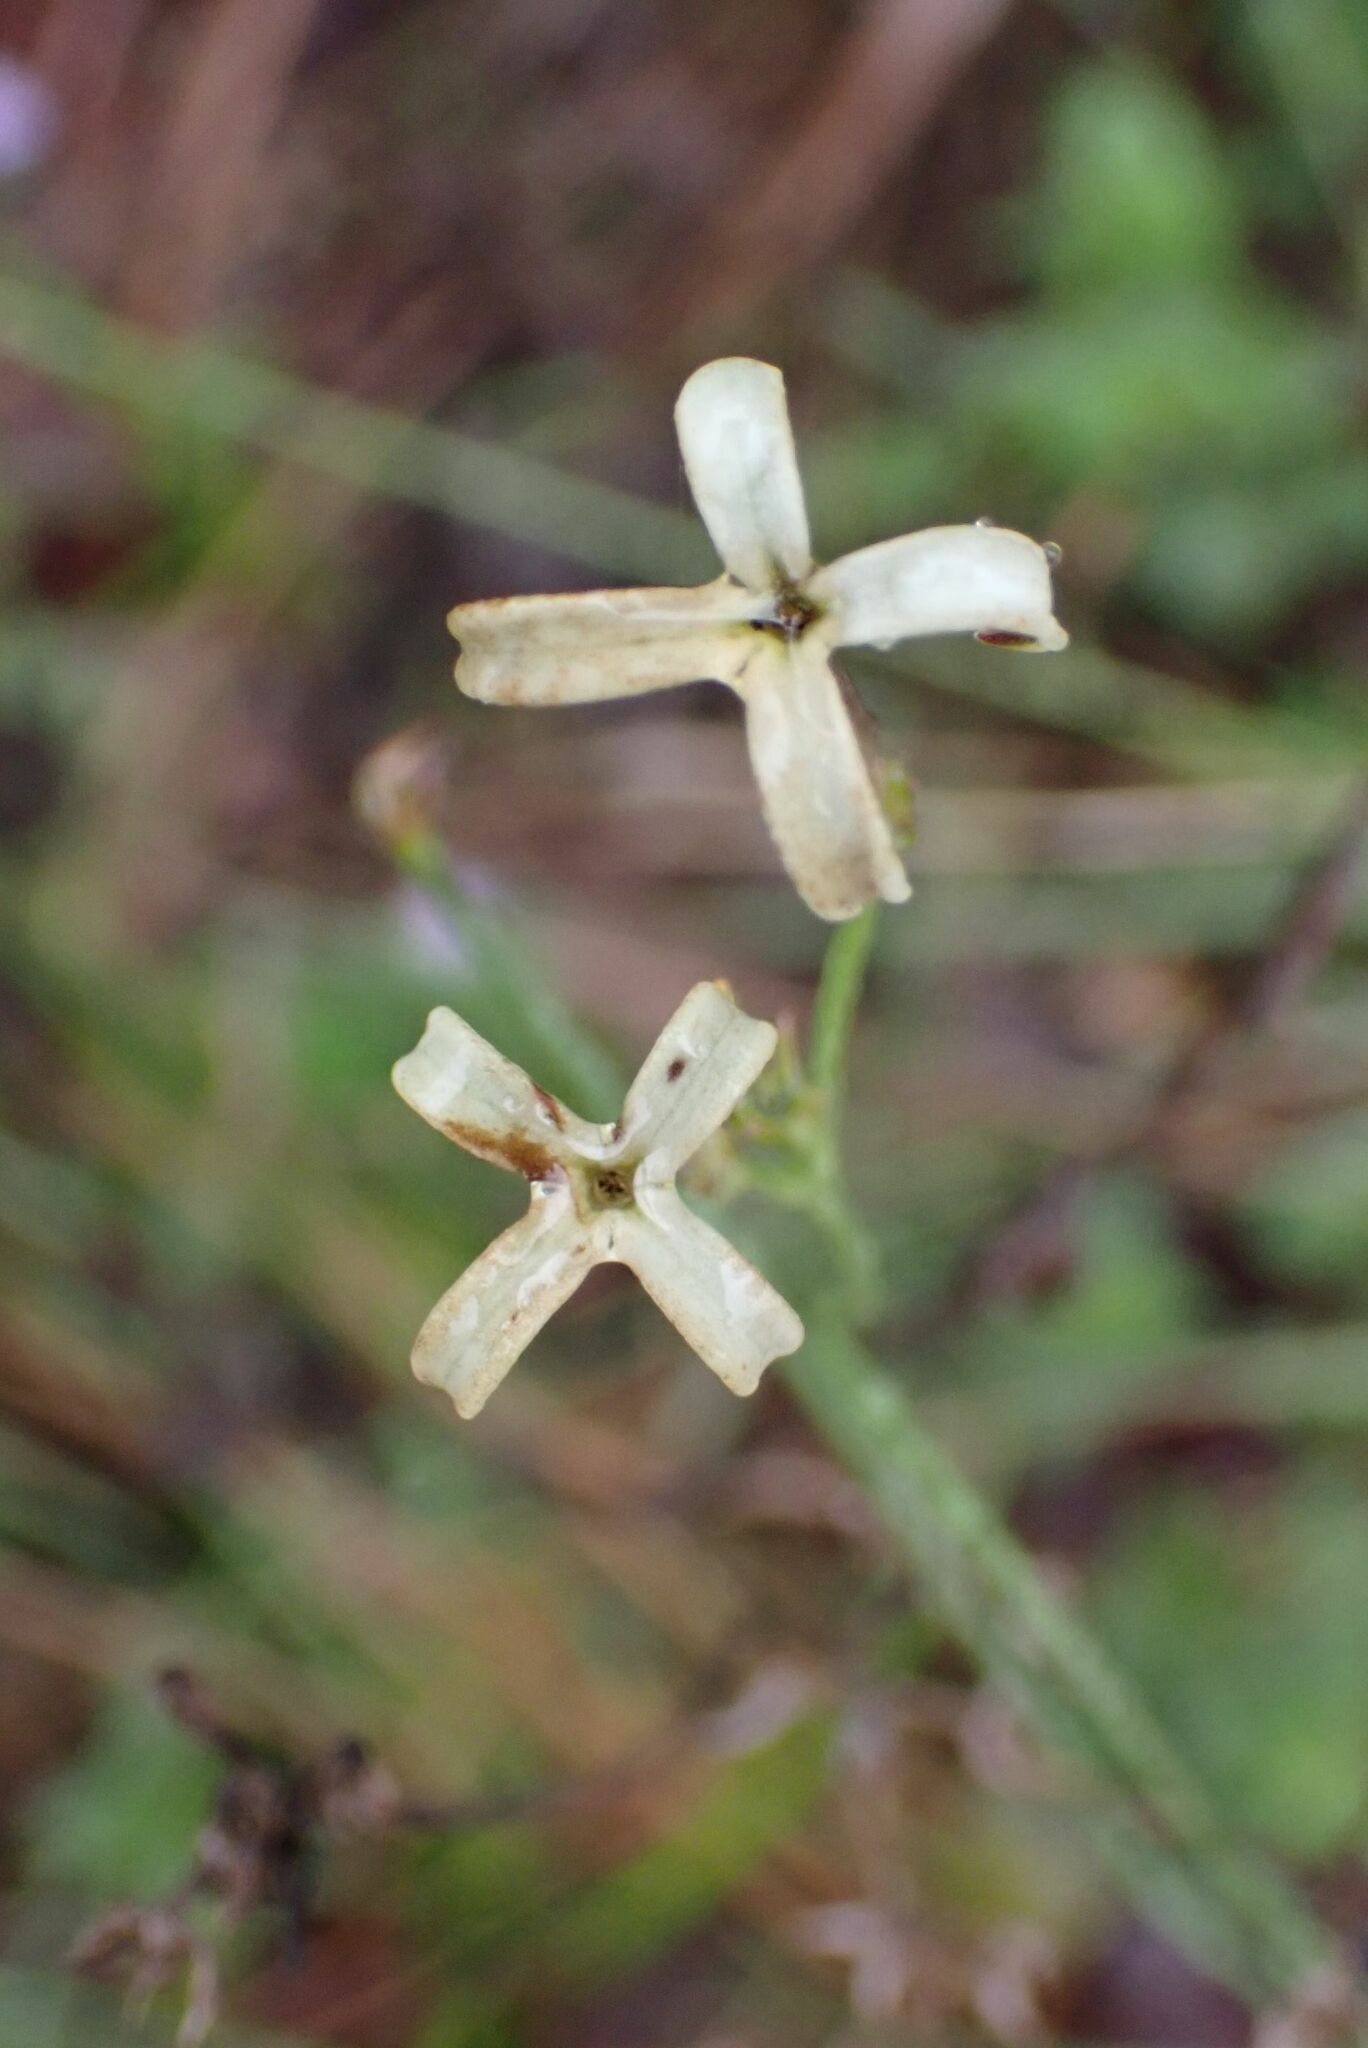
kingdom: Plantae
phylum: Tracheophyta
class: Magnoliopsida
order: Gentianales
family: Rubiaceae
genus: Kohautia
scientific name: Kohautia amatymbica
